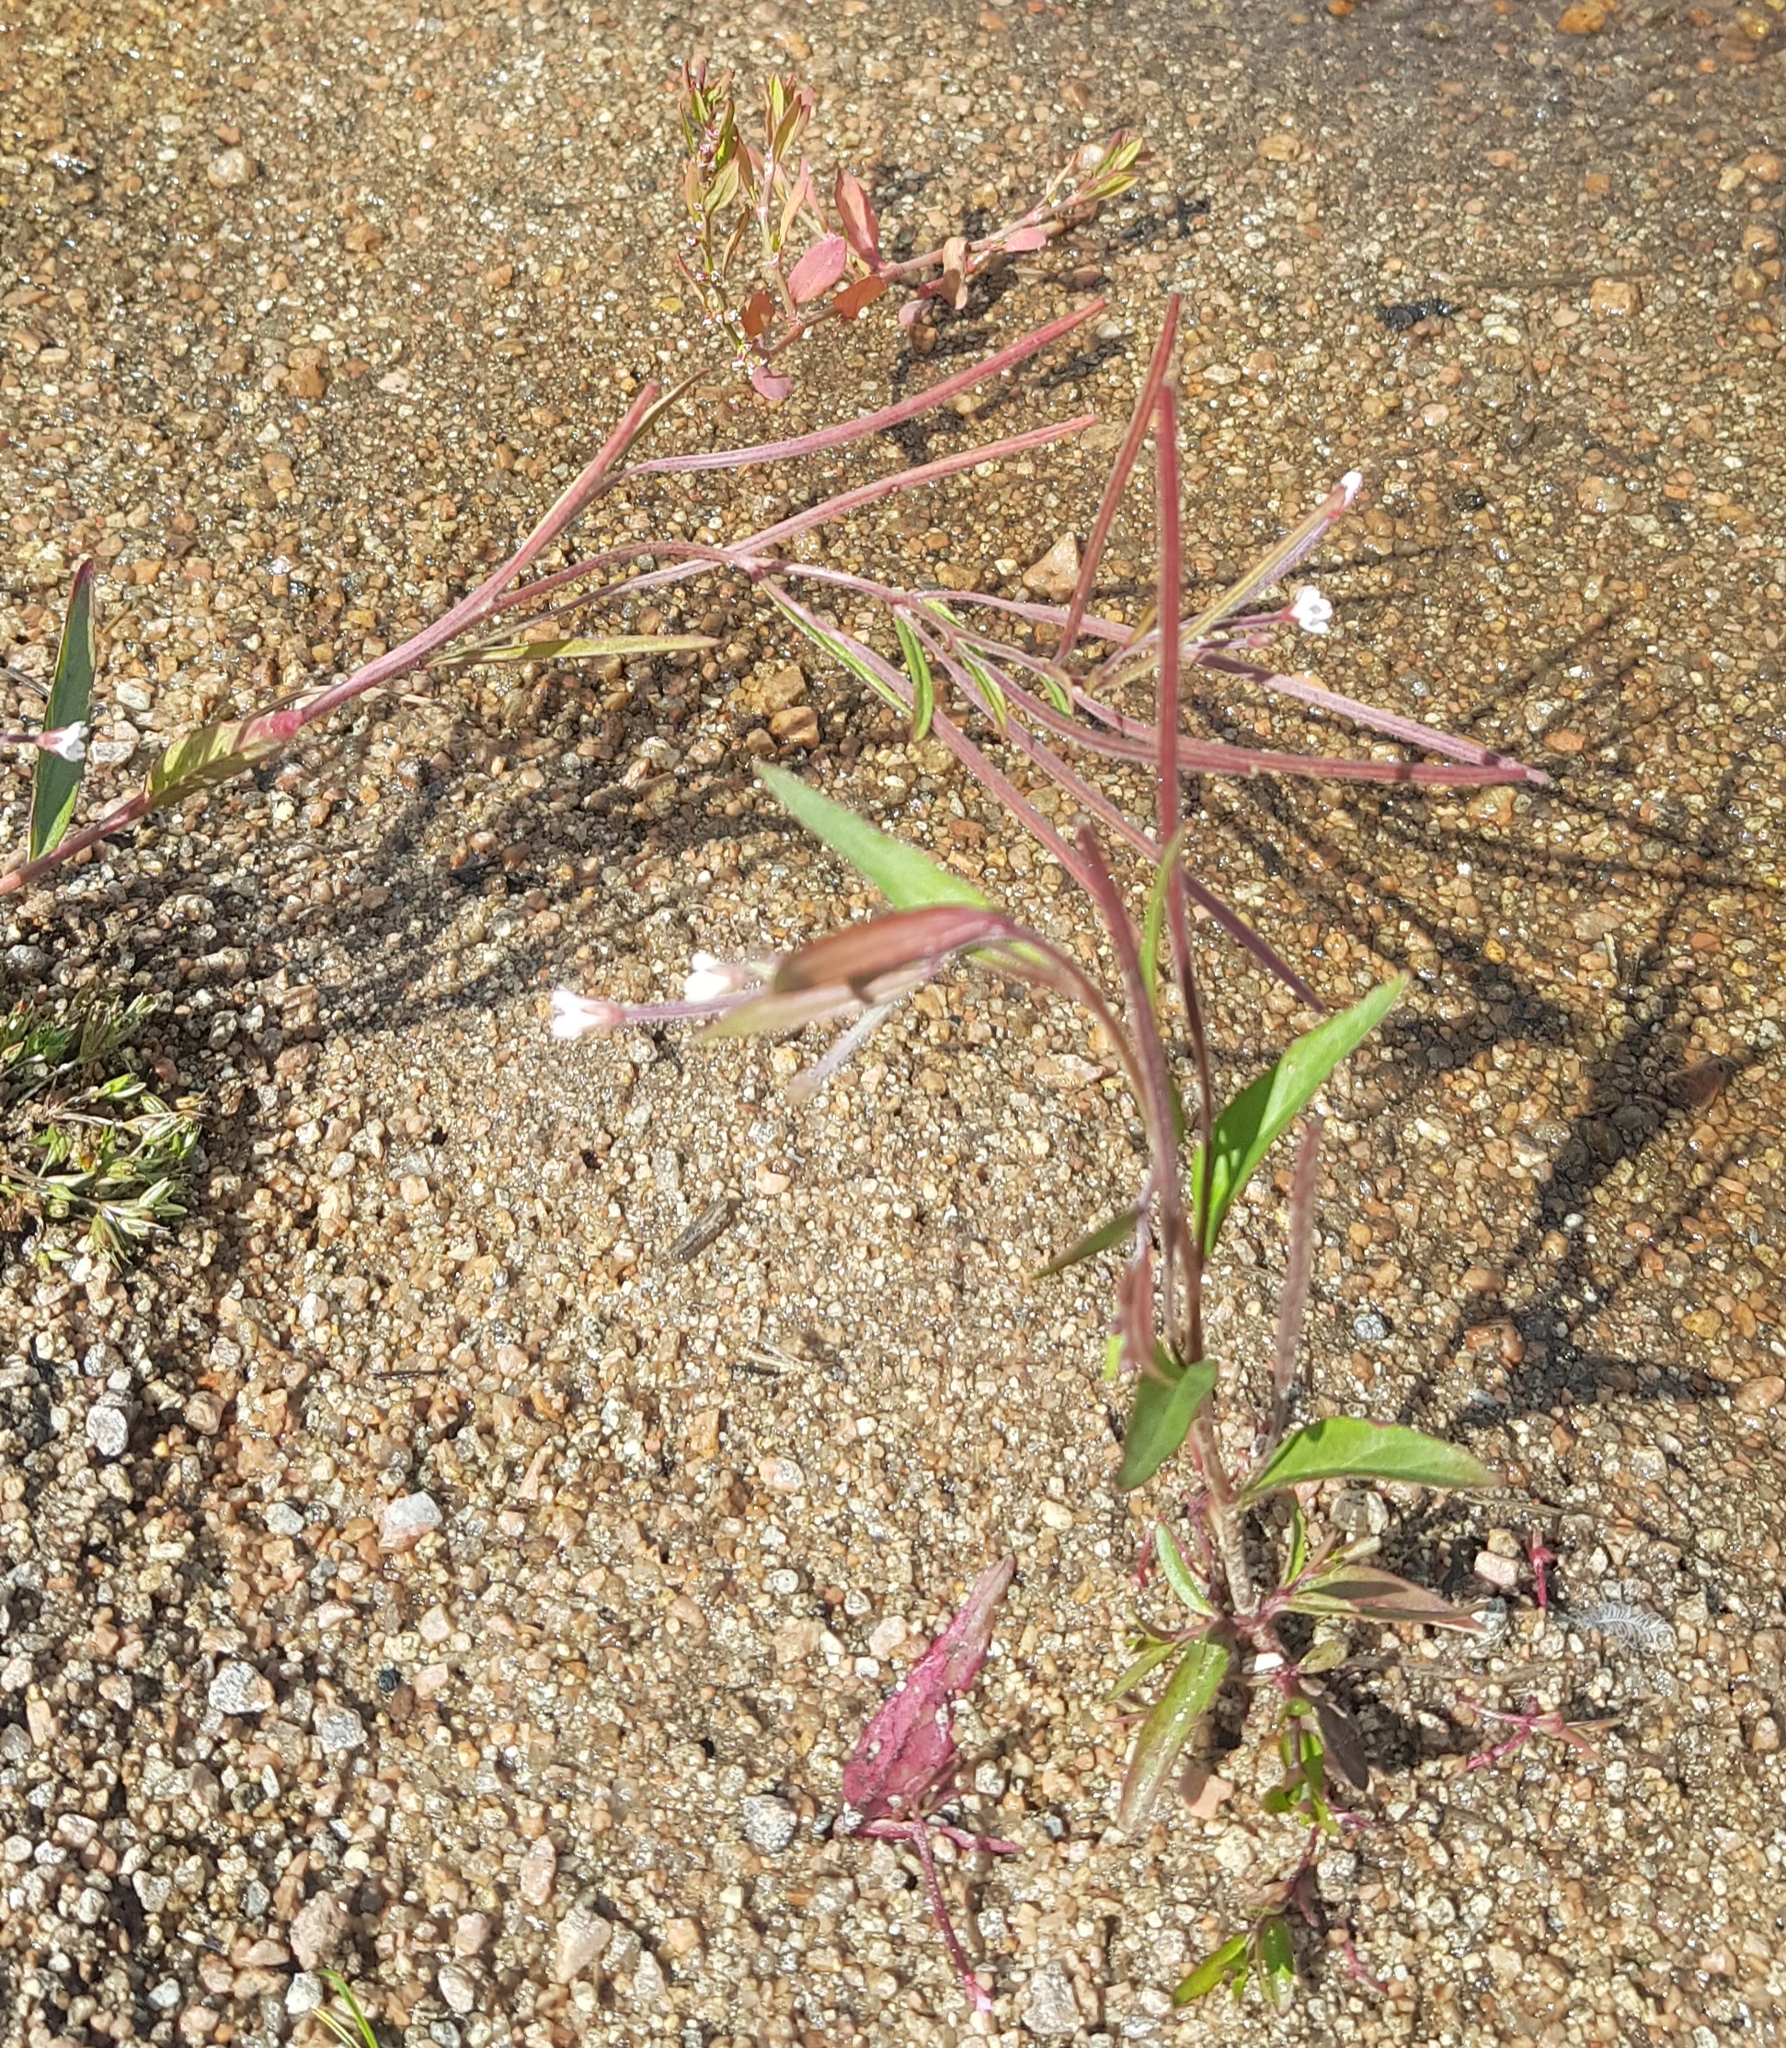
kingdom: Plantae
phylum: Tracheophyta
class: Magnoliopsida
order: Myrtales
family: Onagraceae
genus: Epilobium
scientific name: Epilobium palustre
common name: Marsh willowherb
